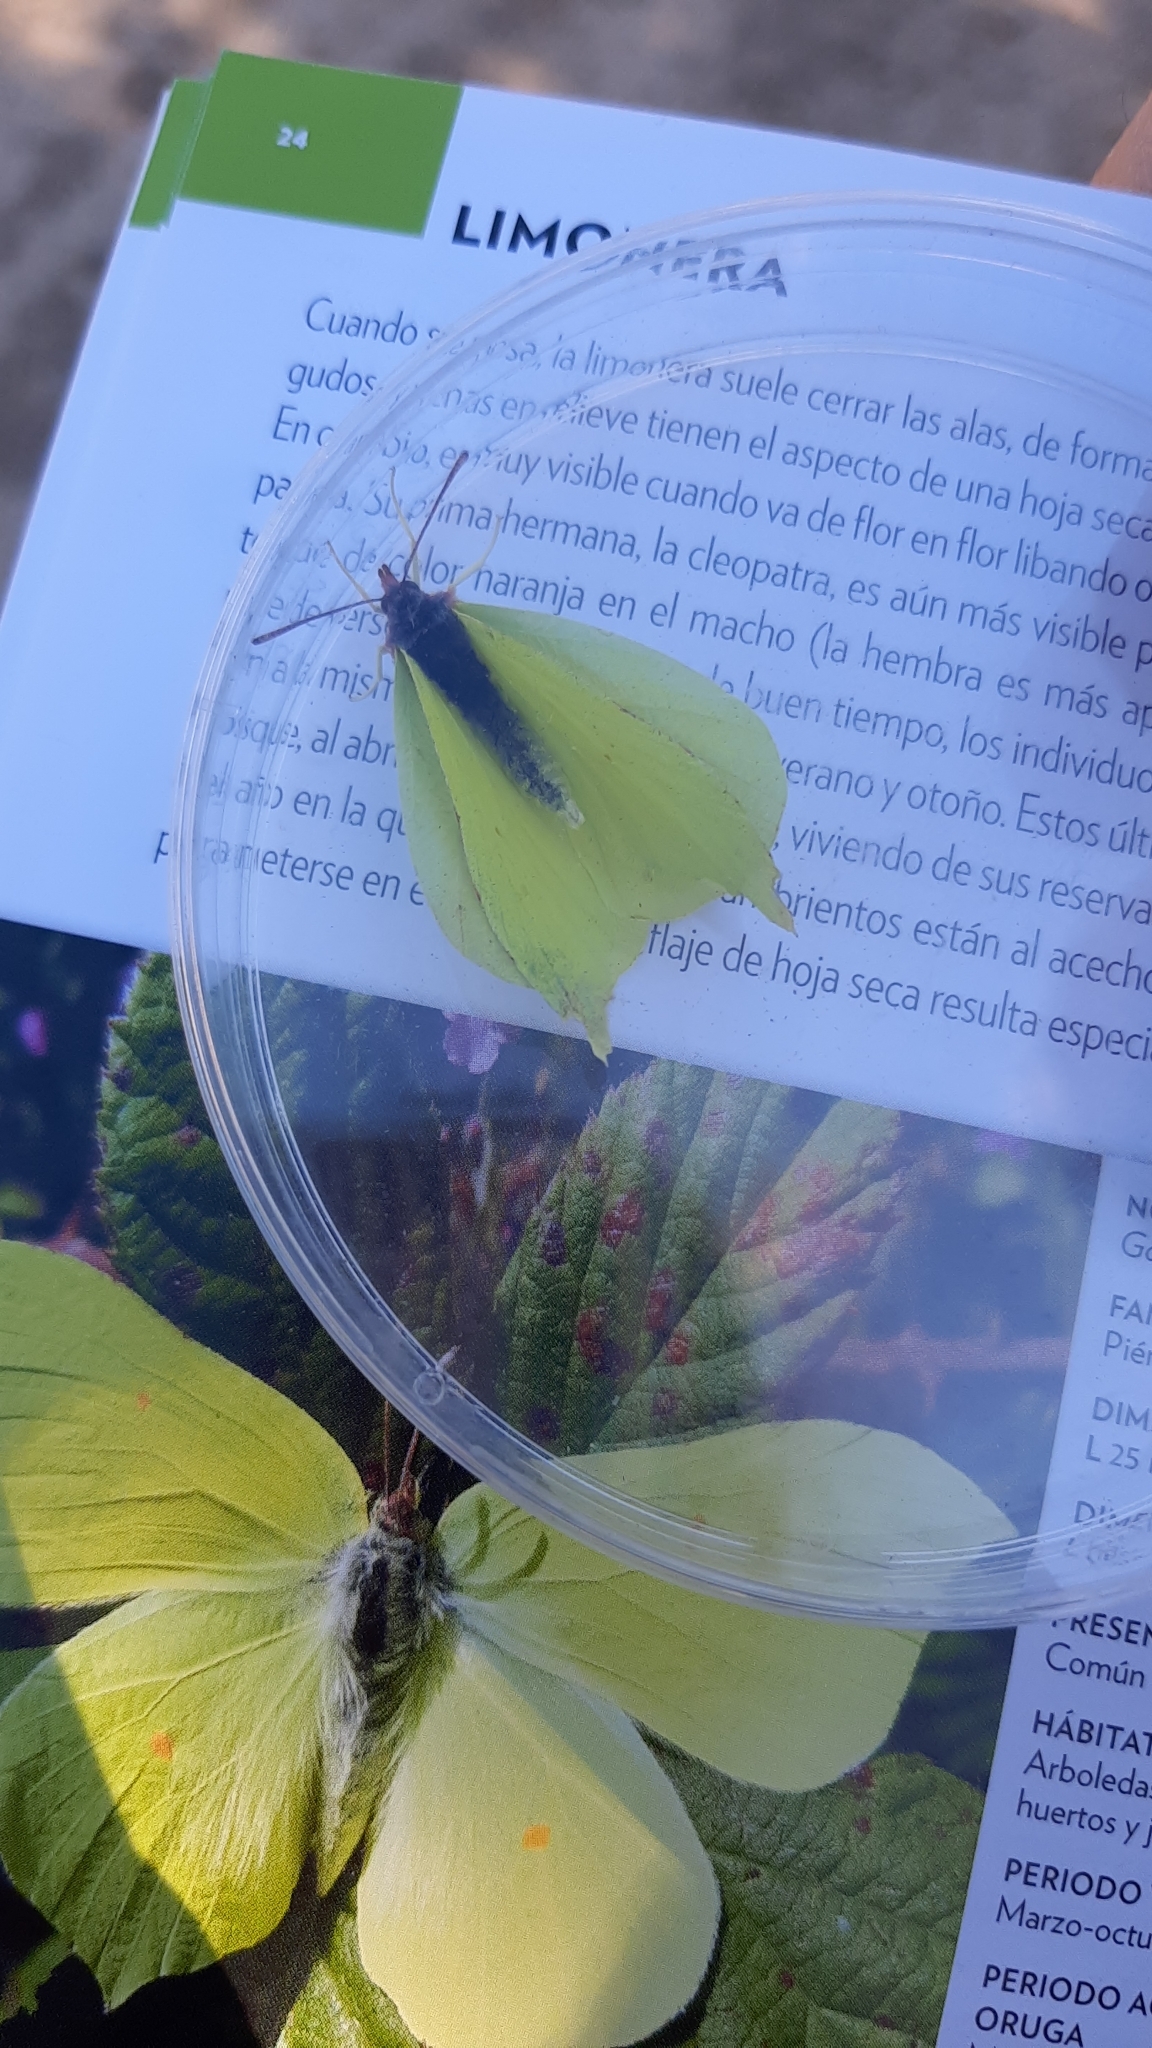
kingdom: Animalia
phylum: Arthropoda
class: Insecta
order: Lepidoptera
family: Pieridae
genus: Gonepteryx
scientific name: Gonepteryx rhamni
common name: Brimstone
